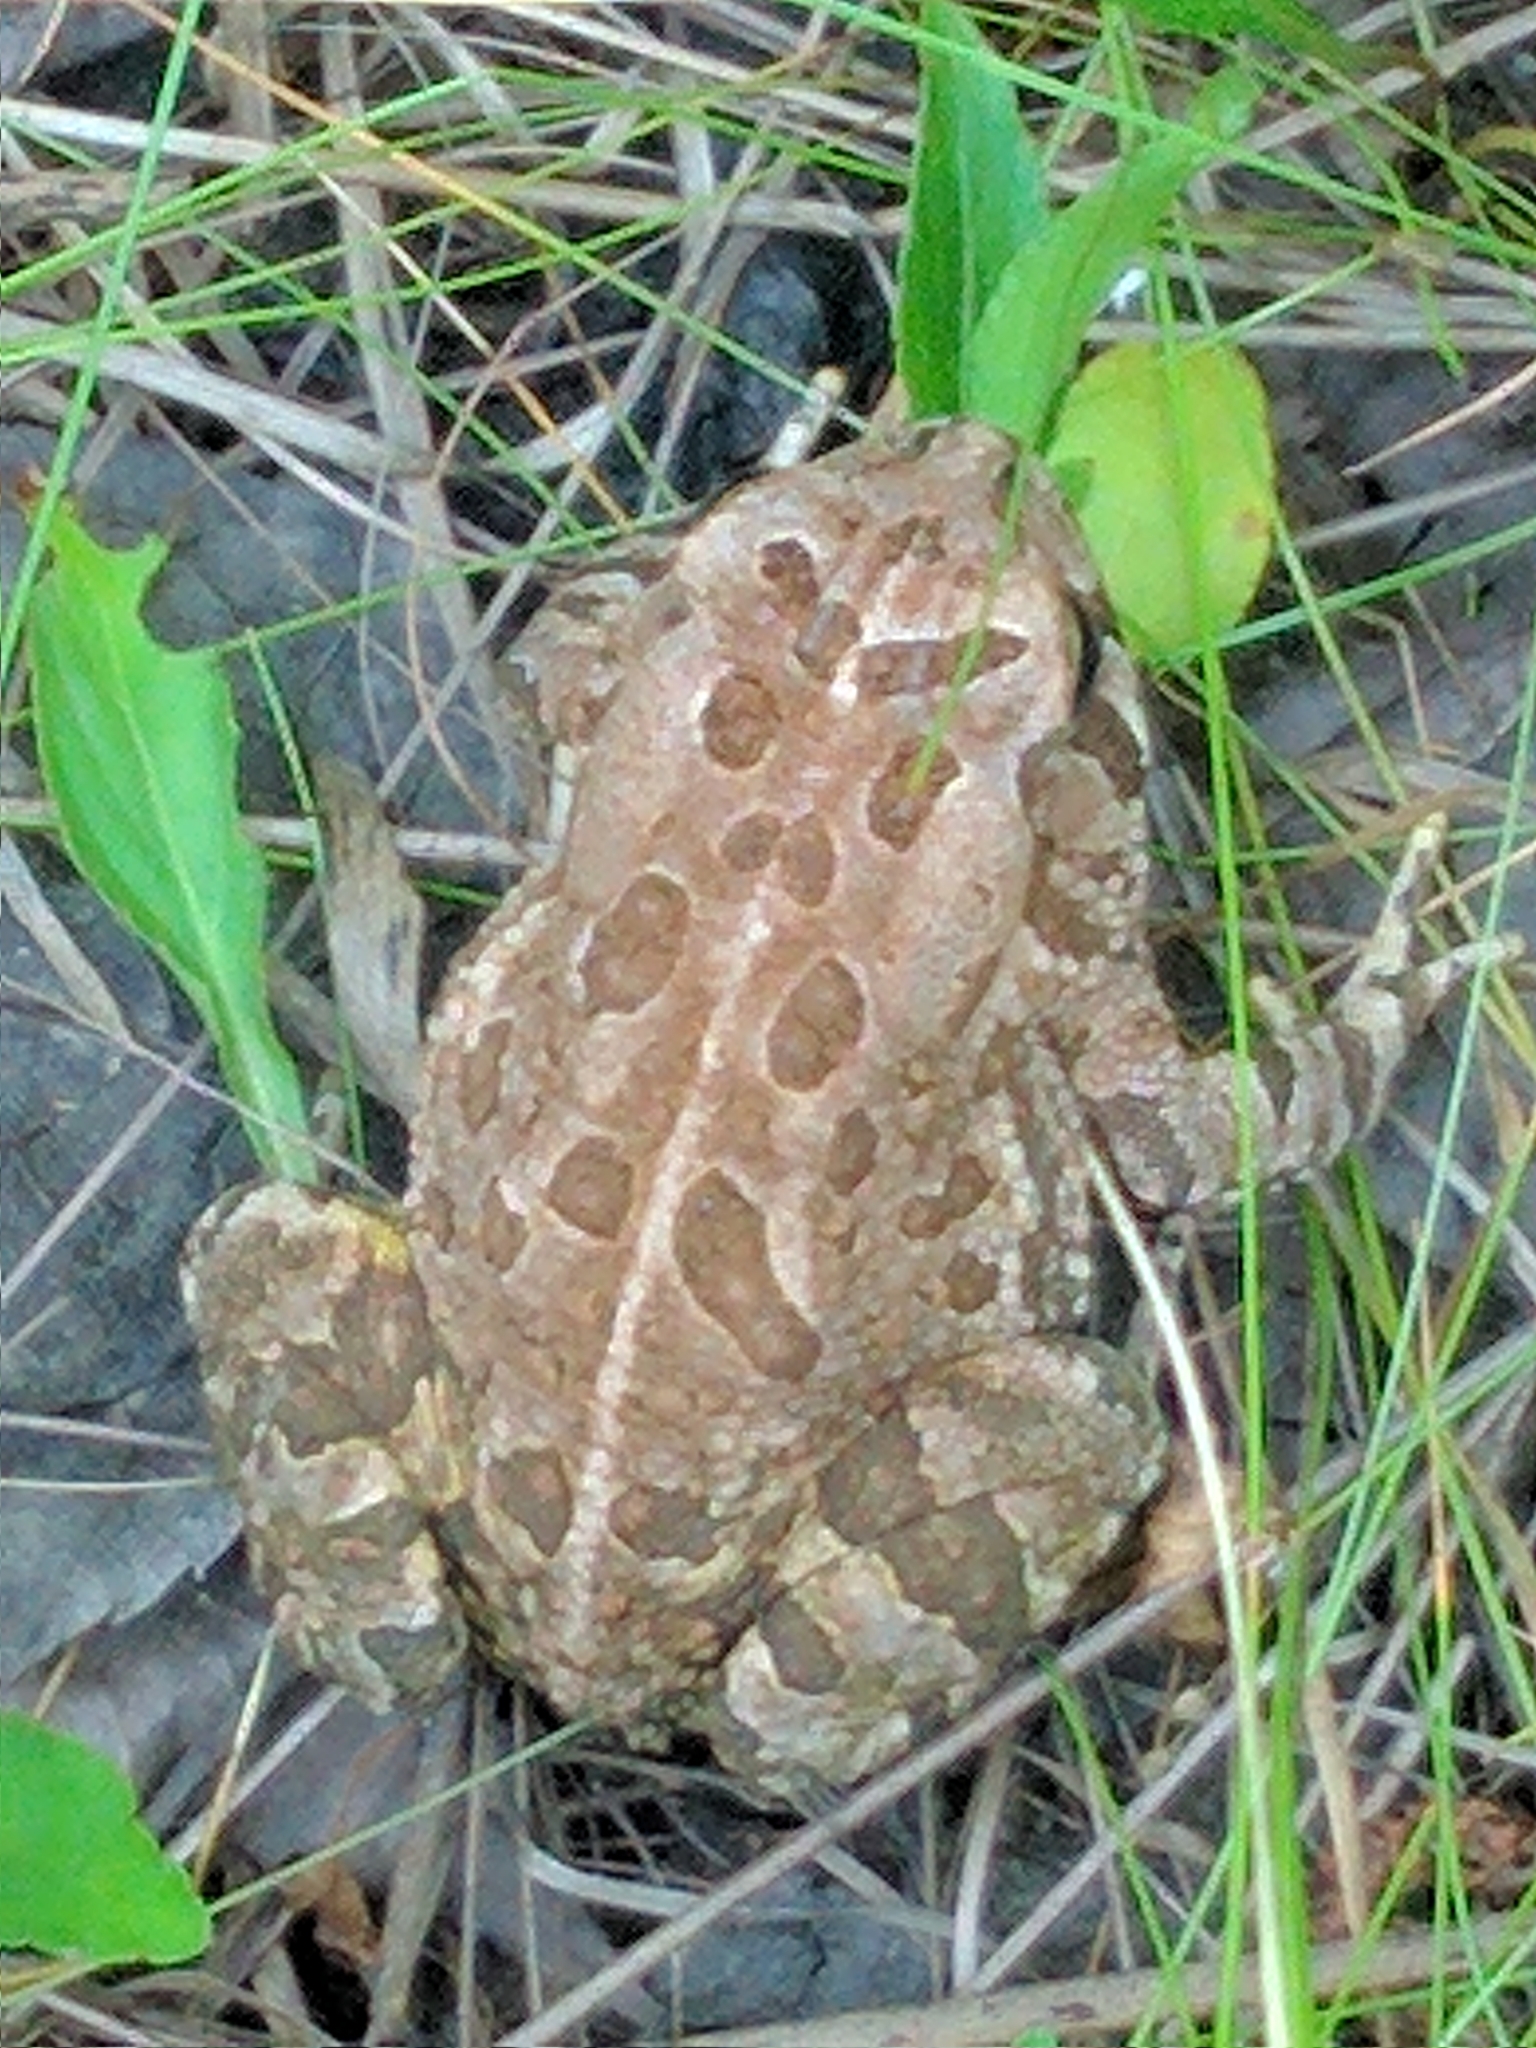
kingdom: Animalia
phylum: Chordata
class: Amphibia
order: Anura
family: Bufonidae
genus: Anaxyrus
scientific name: Anaxyrus fowleri
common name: Fowler's toad
